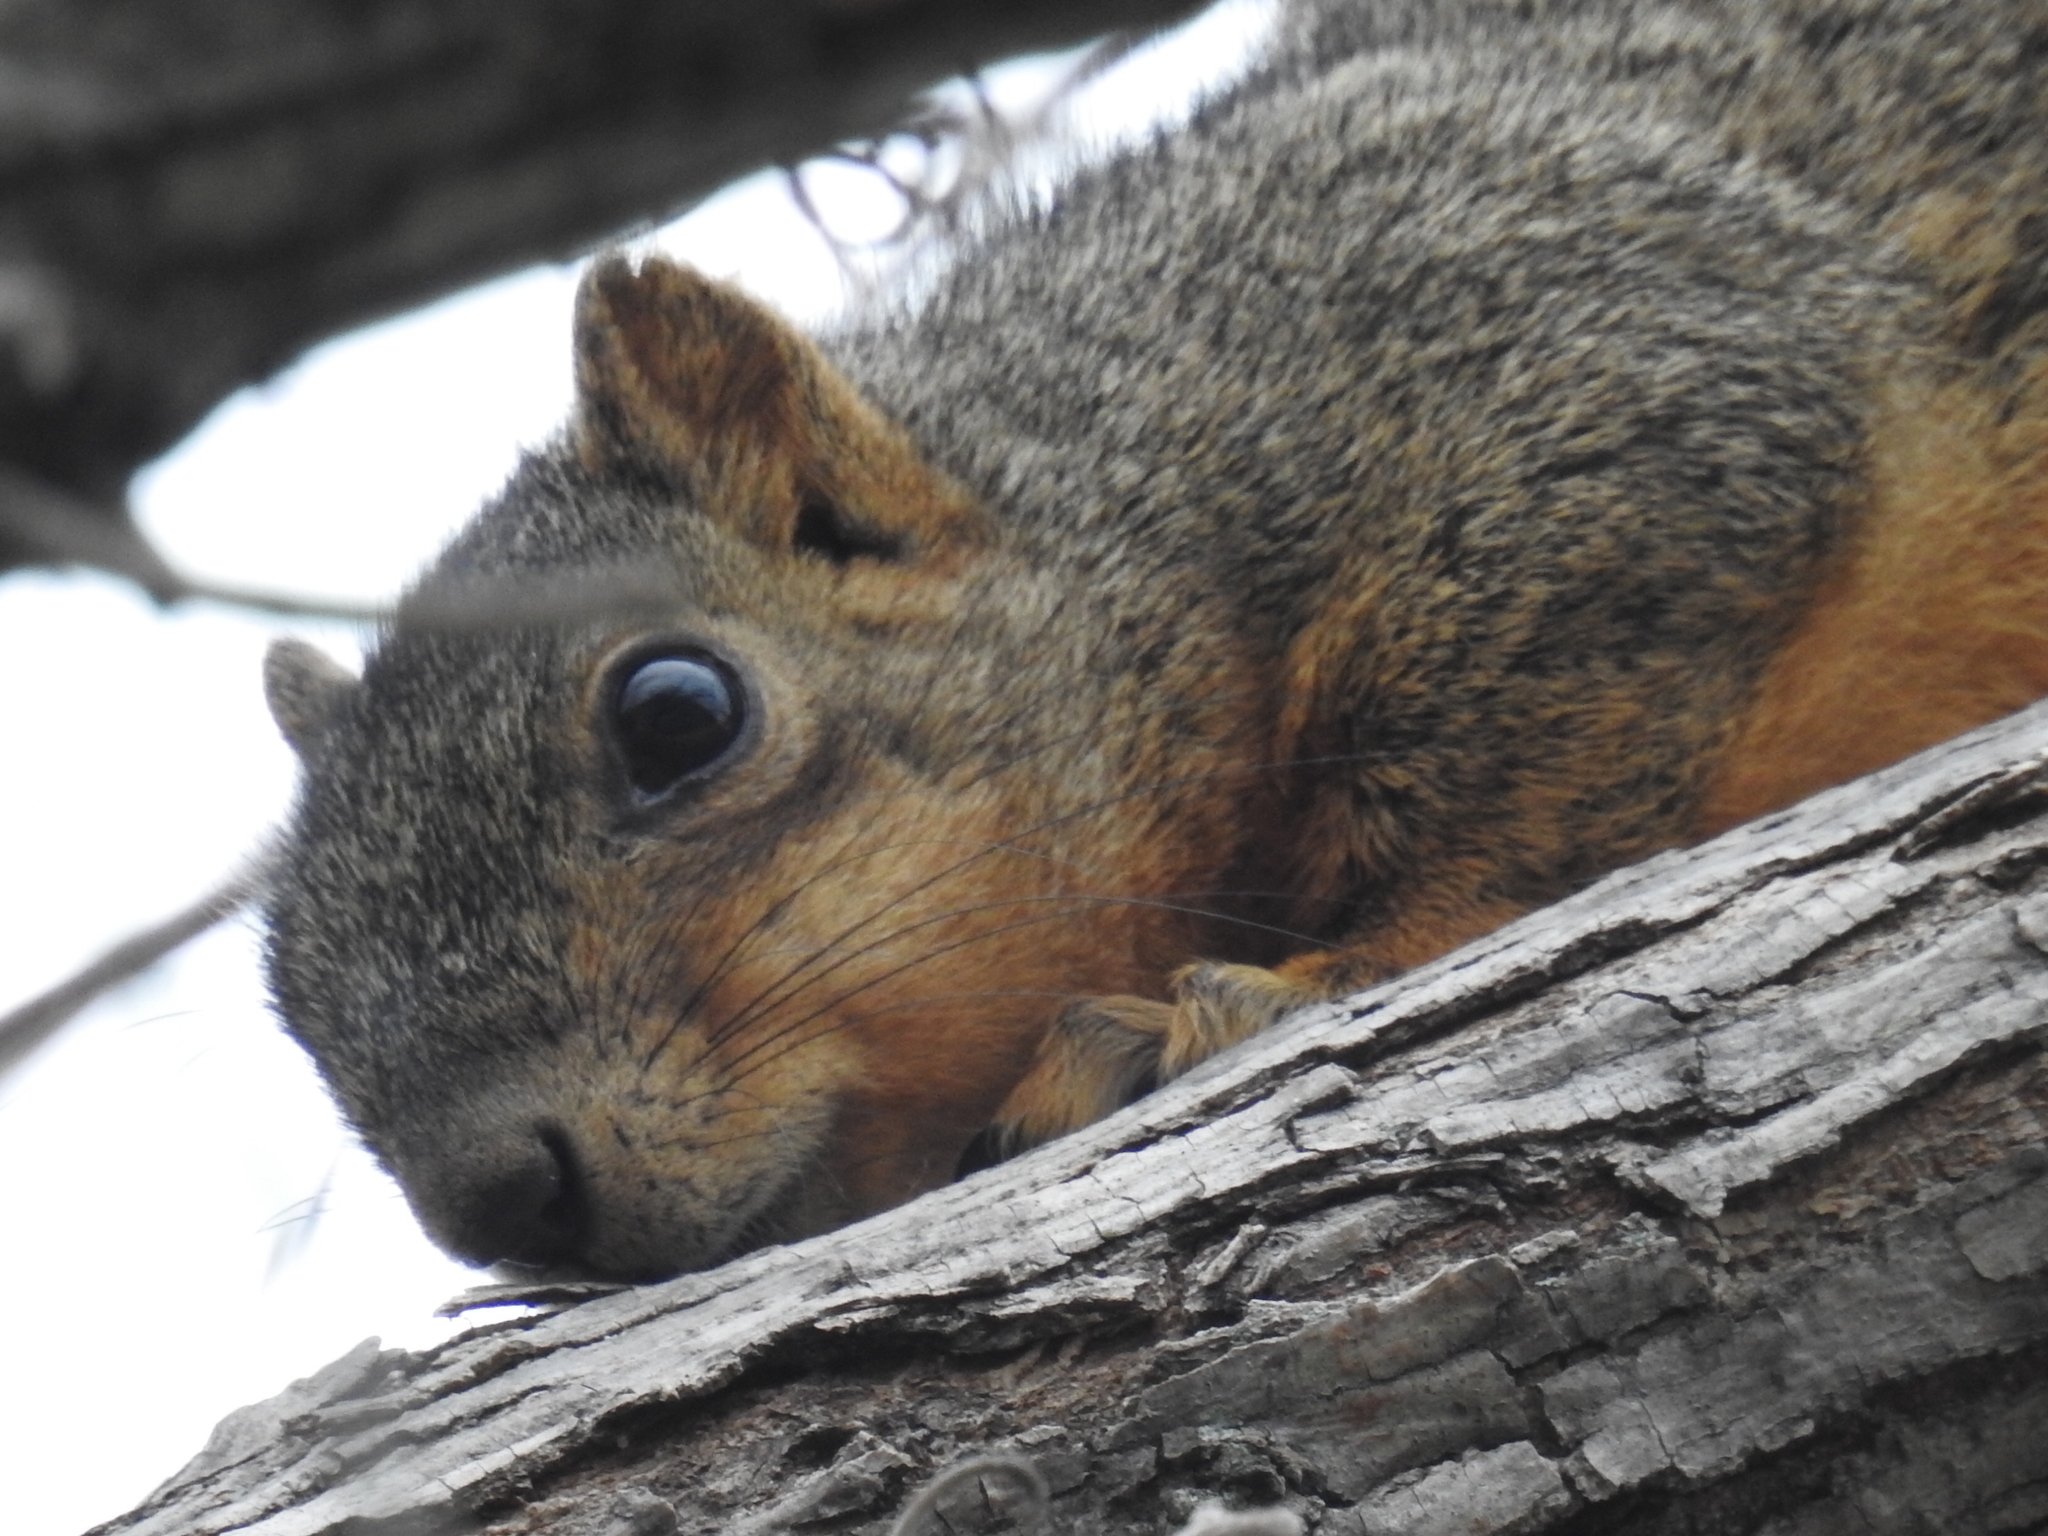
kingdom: Animalia
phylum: Chordata
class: Mammalia
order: Rodentia
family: Sciuridae
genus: Sciurus
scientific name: Sciurus niger
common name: Fox squirrel
